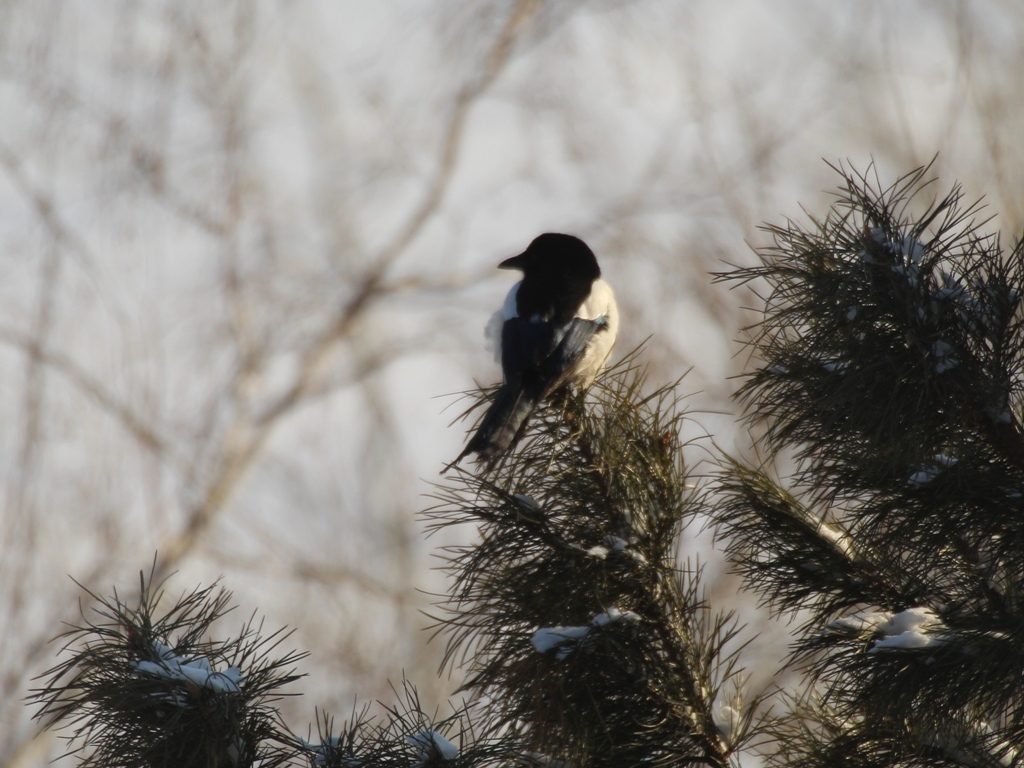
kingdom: Animalia
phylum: Chordata
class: Aves
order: Passeriformes
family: Corvidae
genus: Pica
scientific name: Pica pica
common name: Eurasian magpie
